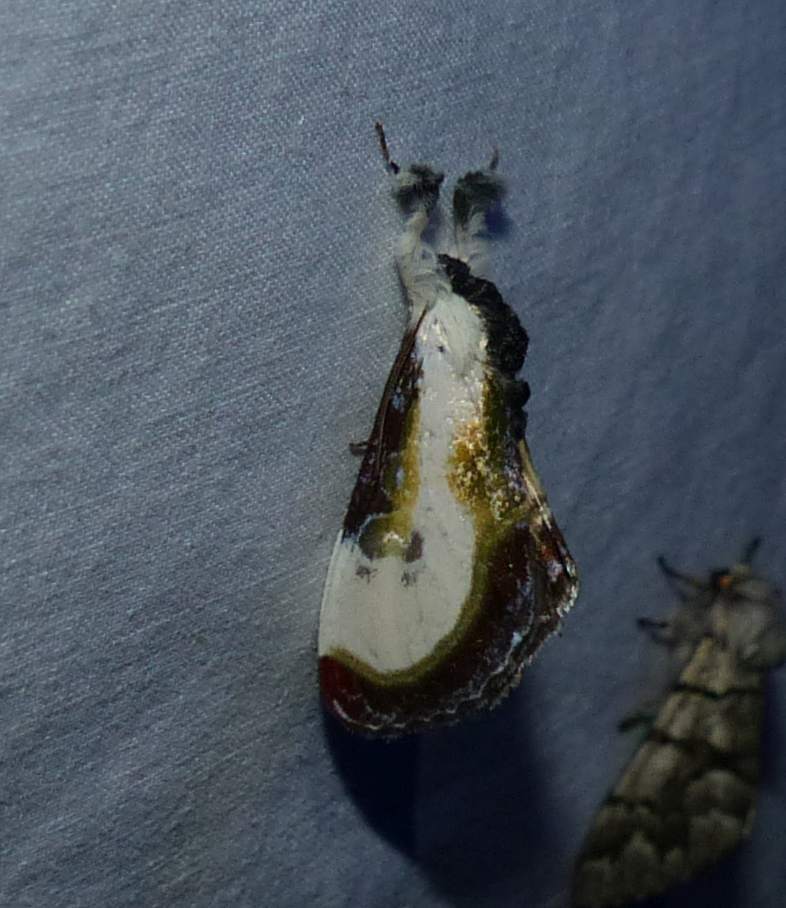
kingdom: Animalia
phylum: Arthropoda
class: Insecta
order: Lepidoptera
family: Noctuidae
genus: Eudryas
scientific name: Eudryas grata
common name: Beautiful wood-nymph
